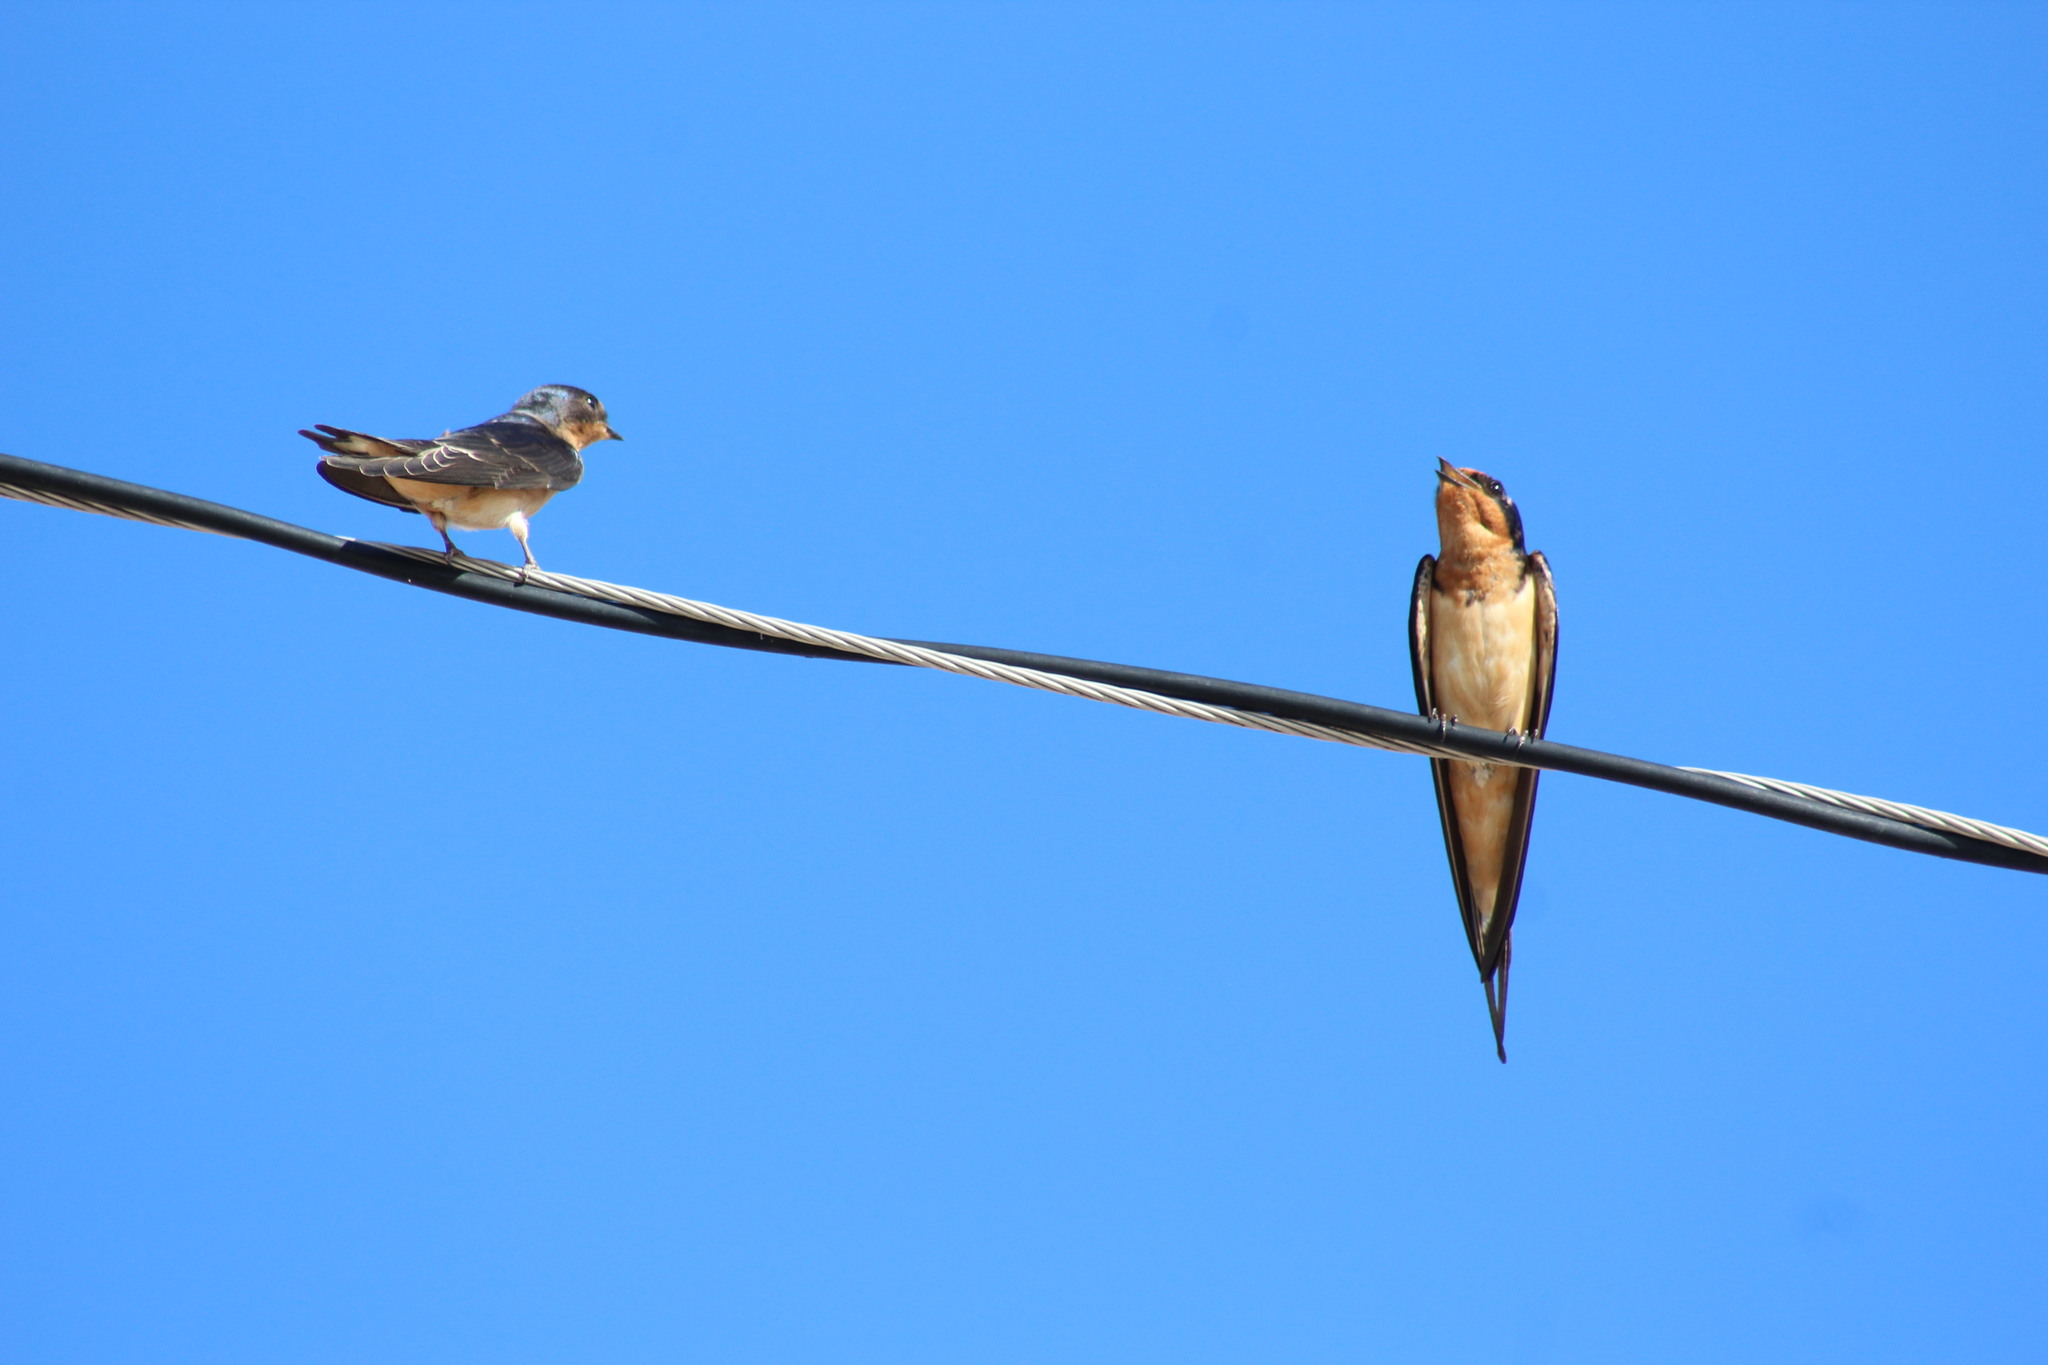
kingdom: Animalia
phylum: Chordata
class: Aves
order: Passeriformes
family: Hirundinidae
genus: Hirundo
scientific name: Hirundo rustica
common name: Barn swallow
